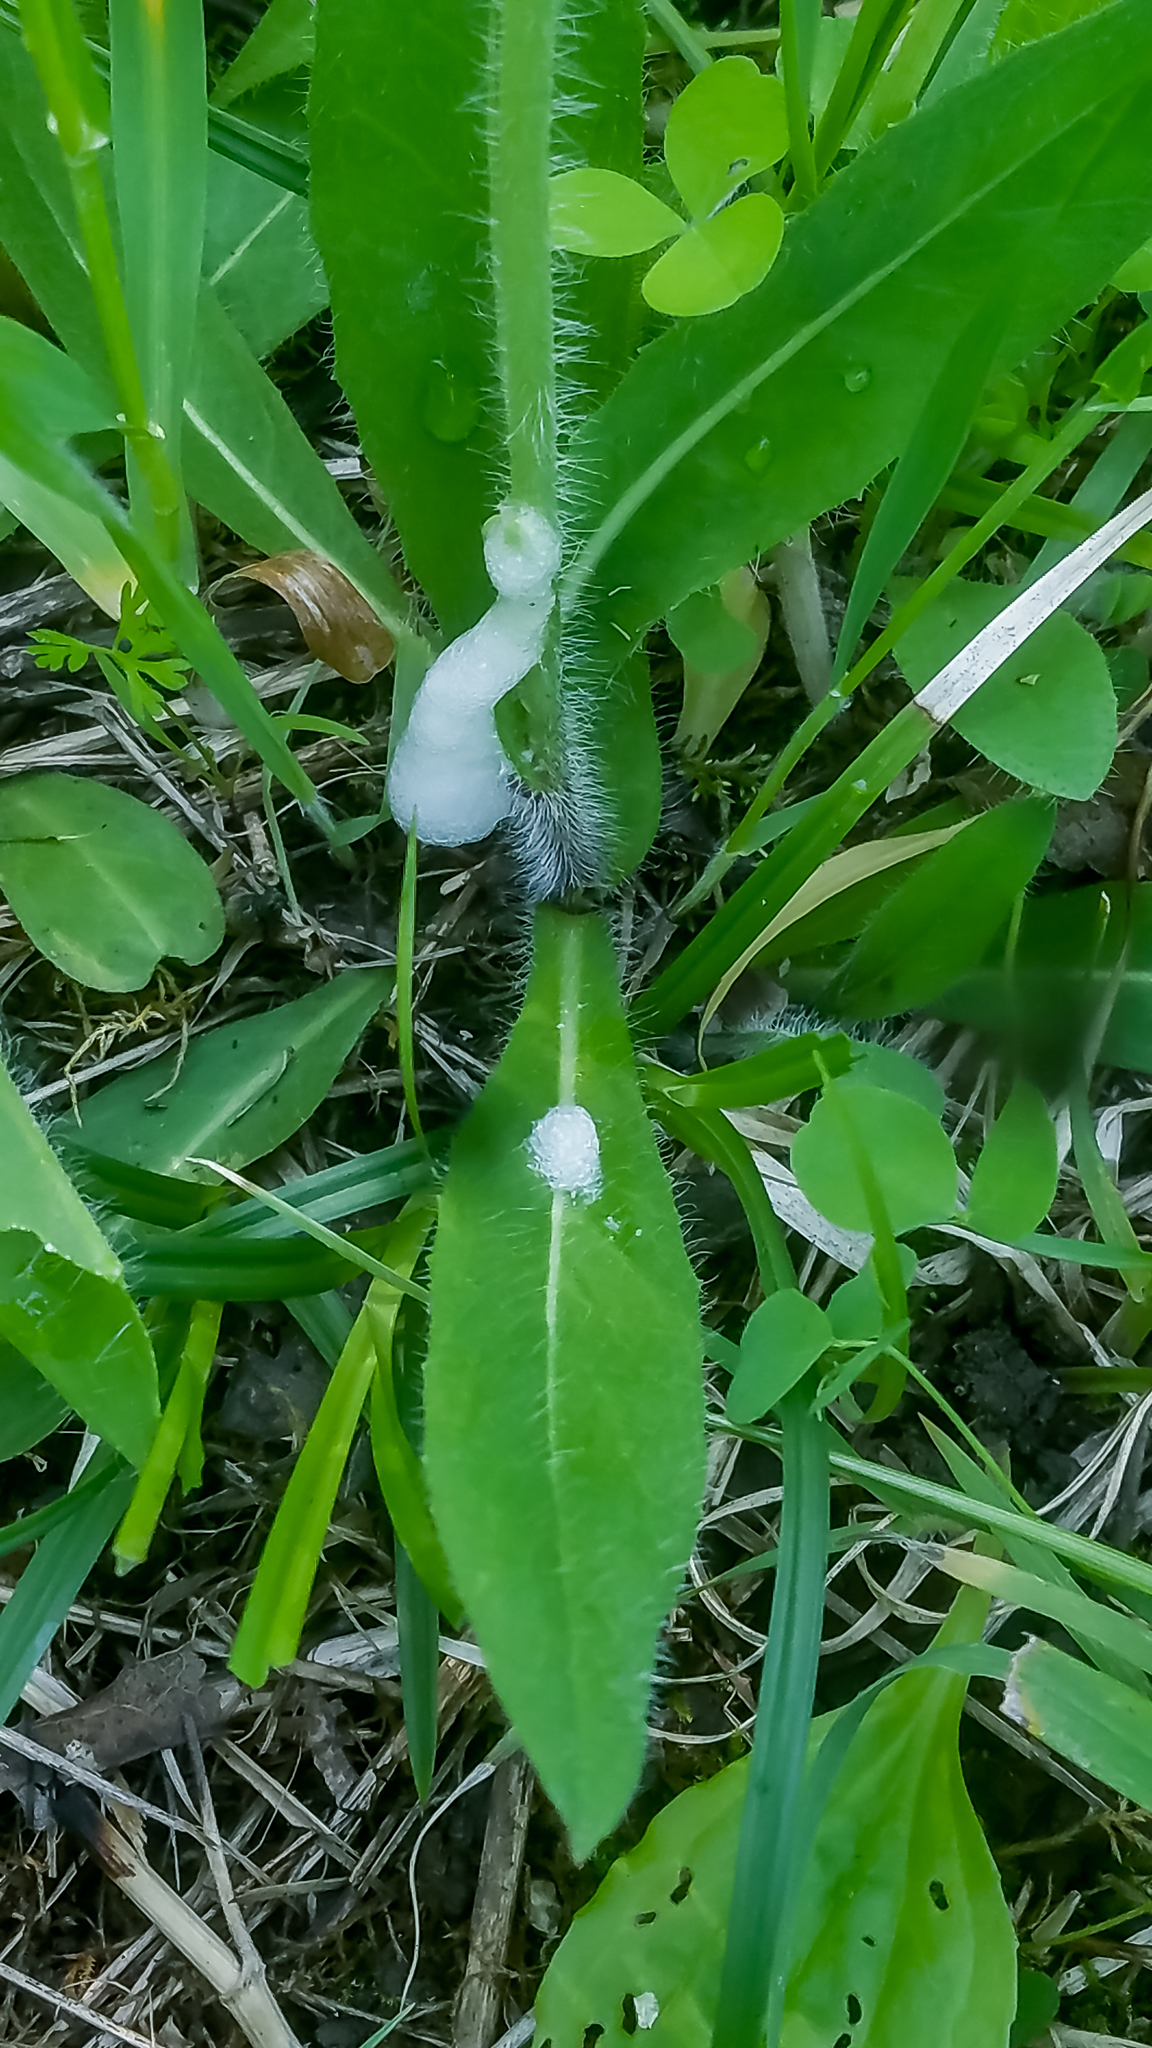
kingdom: Plantae
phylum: Tracheophyta
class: Magnoliopsida
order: Asterales
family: Asteraceae
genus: Pilosella
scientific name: Pilosella caespitosa
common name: Yellow fox-and-cubs
